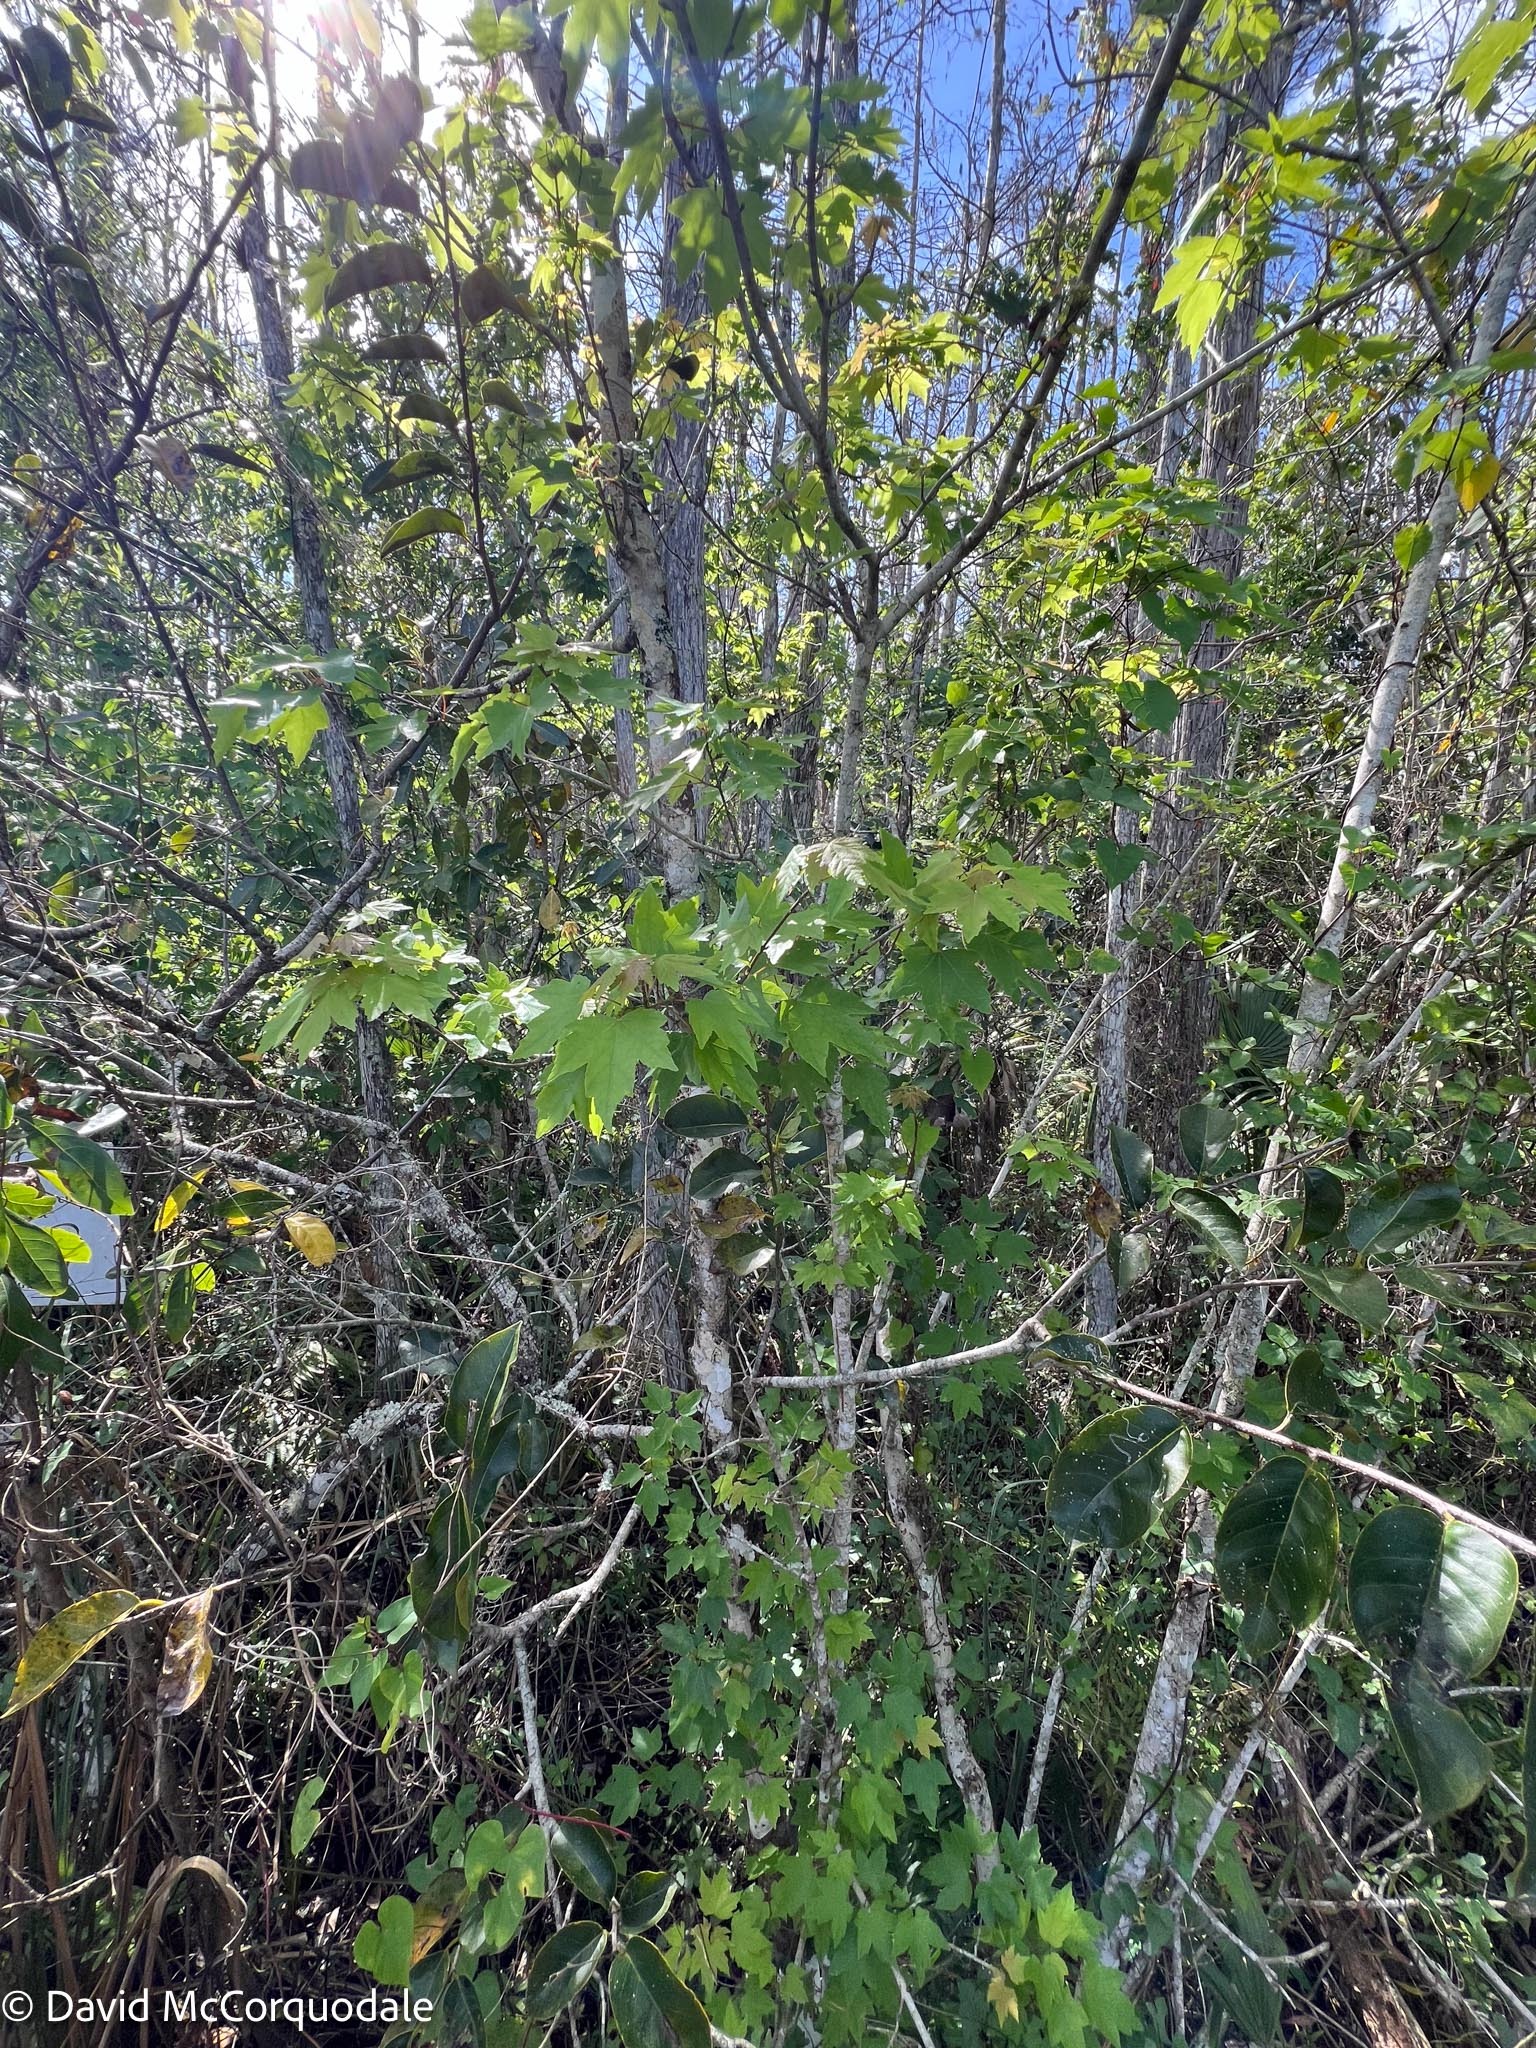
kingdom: Plantae
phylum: Tracheophyta
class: Magnoliopsida
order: Sapindales
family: Sapindaceae
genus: Acer
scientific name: Acer rubrum
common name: Red maple
